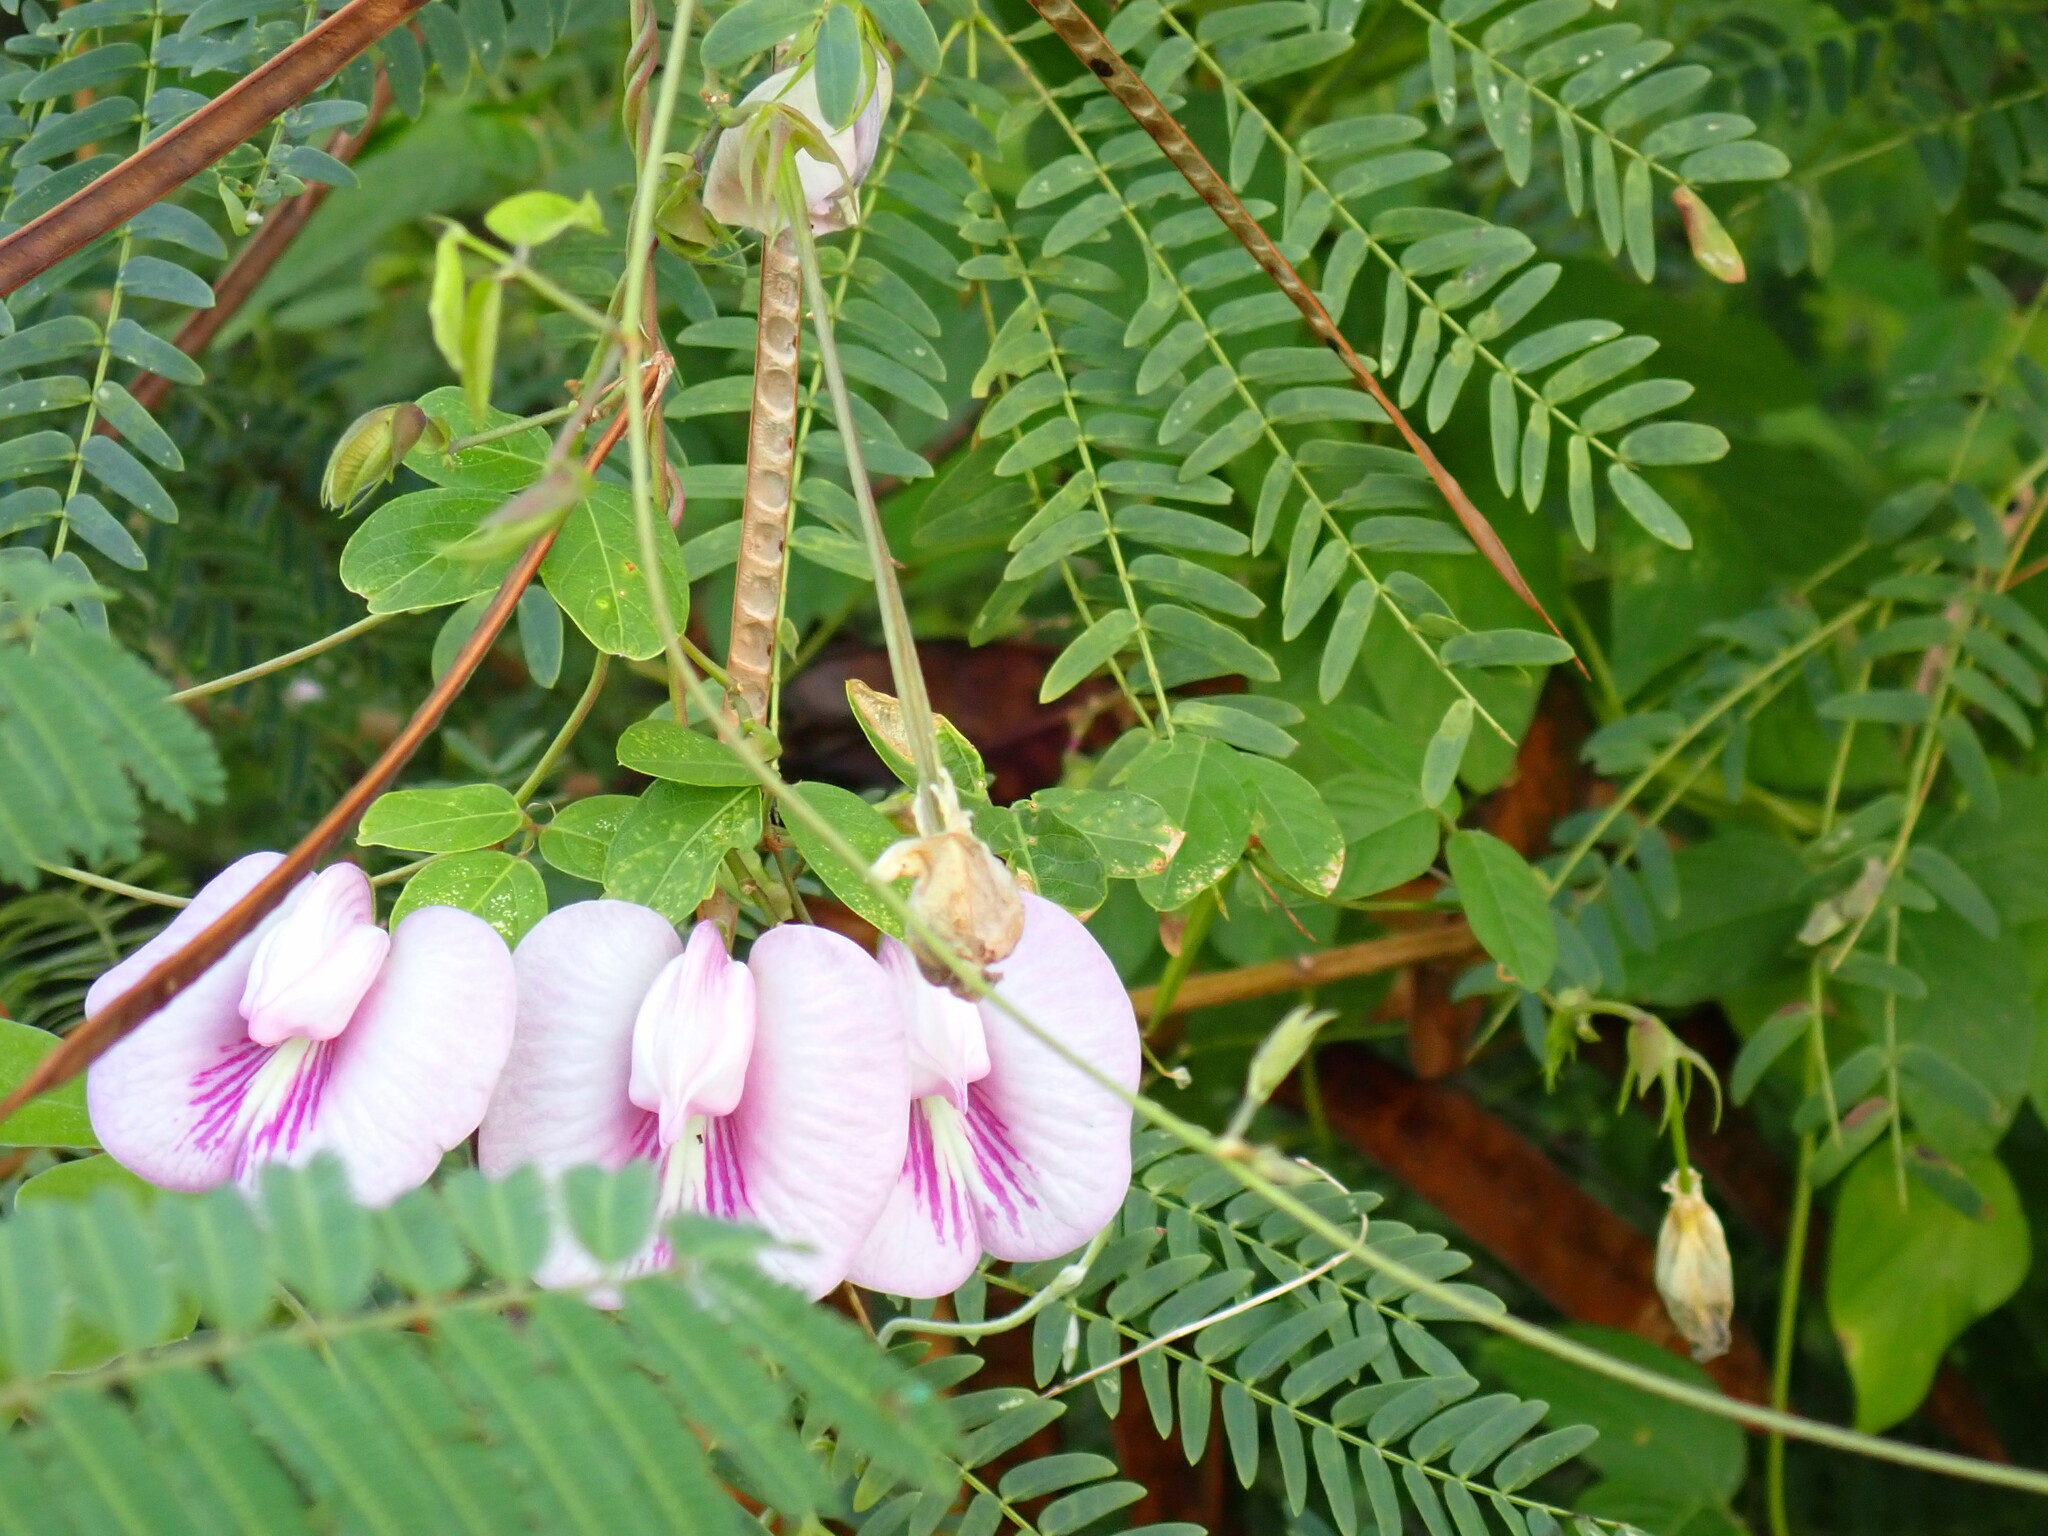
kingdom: Plantae
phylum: Tracheophyta
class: Magnoliopsida
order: Fabales
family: Fabaceae
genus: Centrosema
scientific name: Centrosema pubescens
